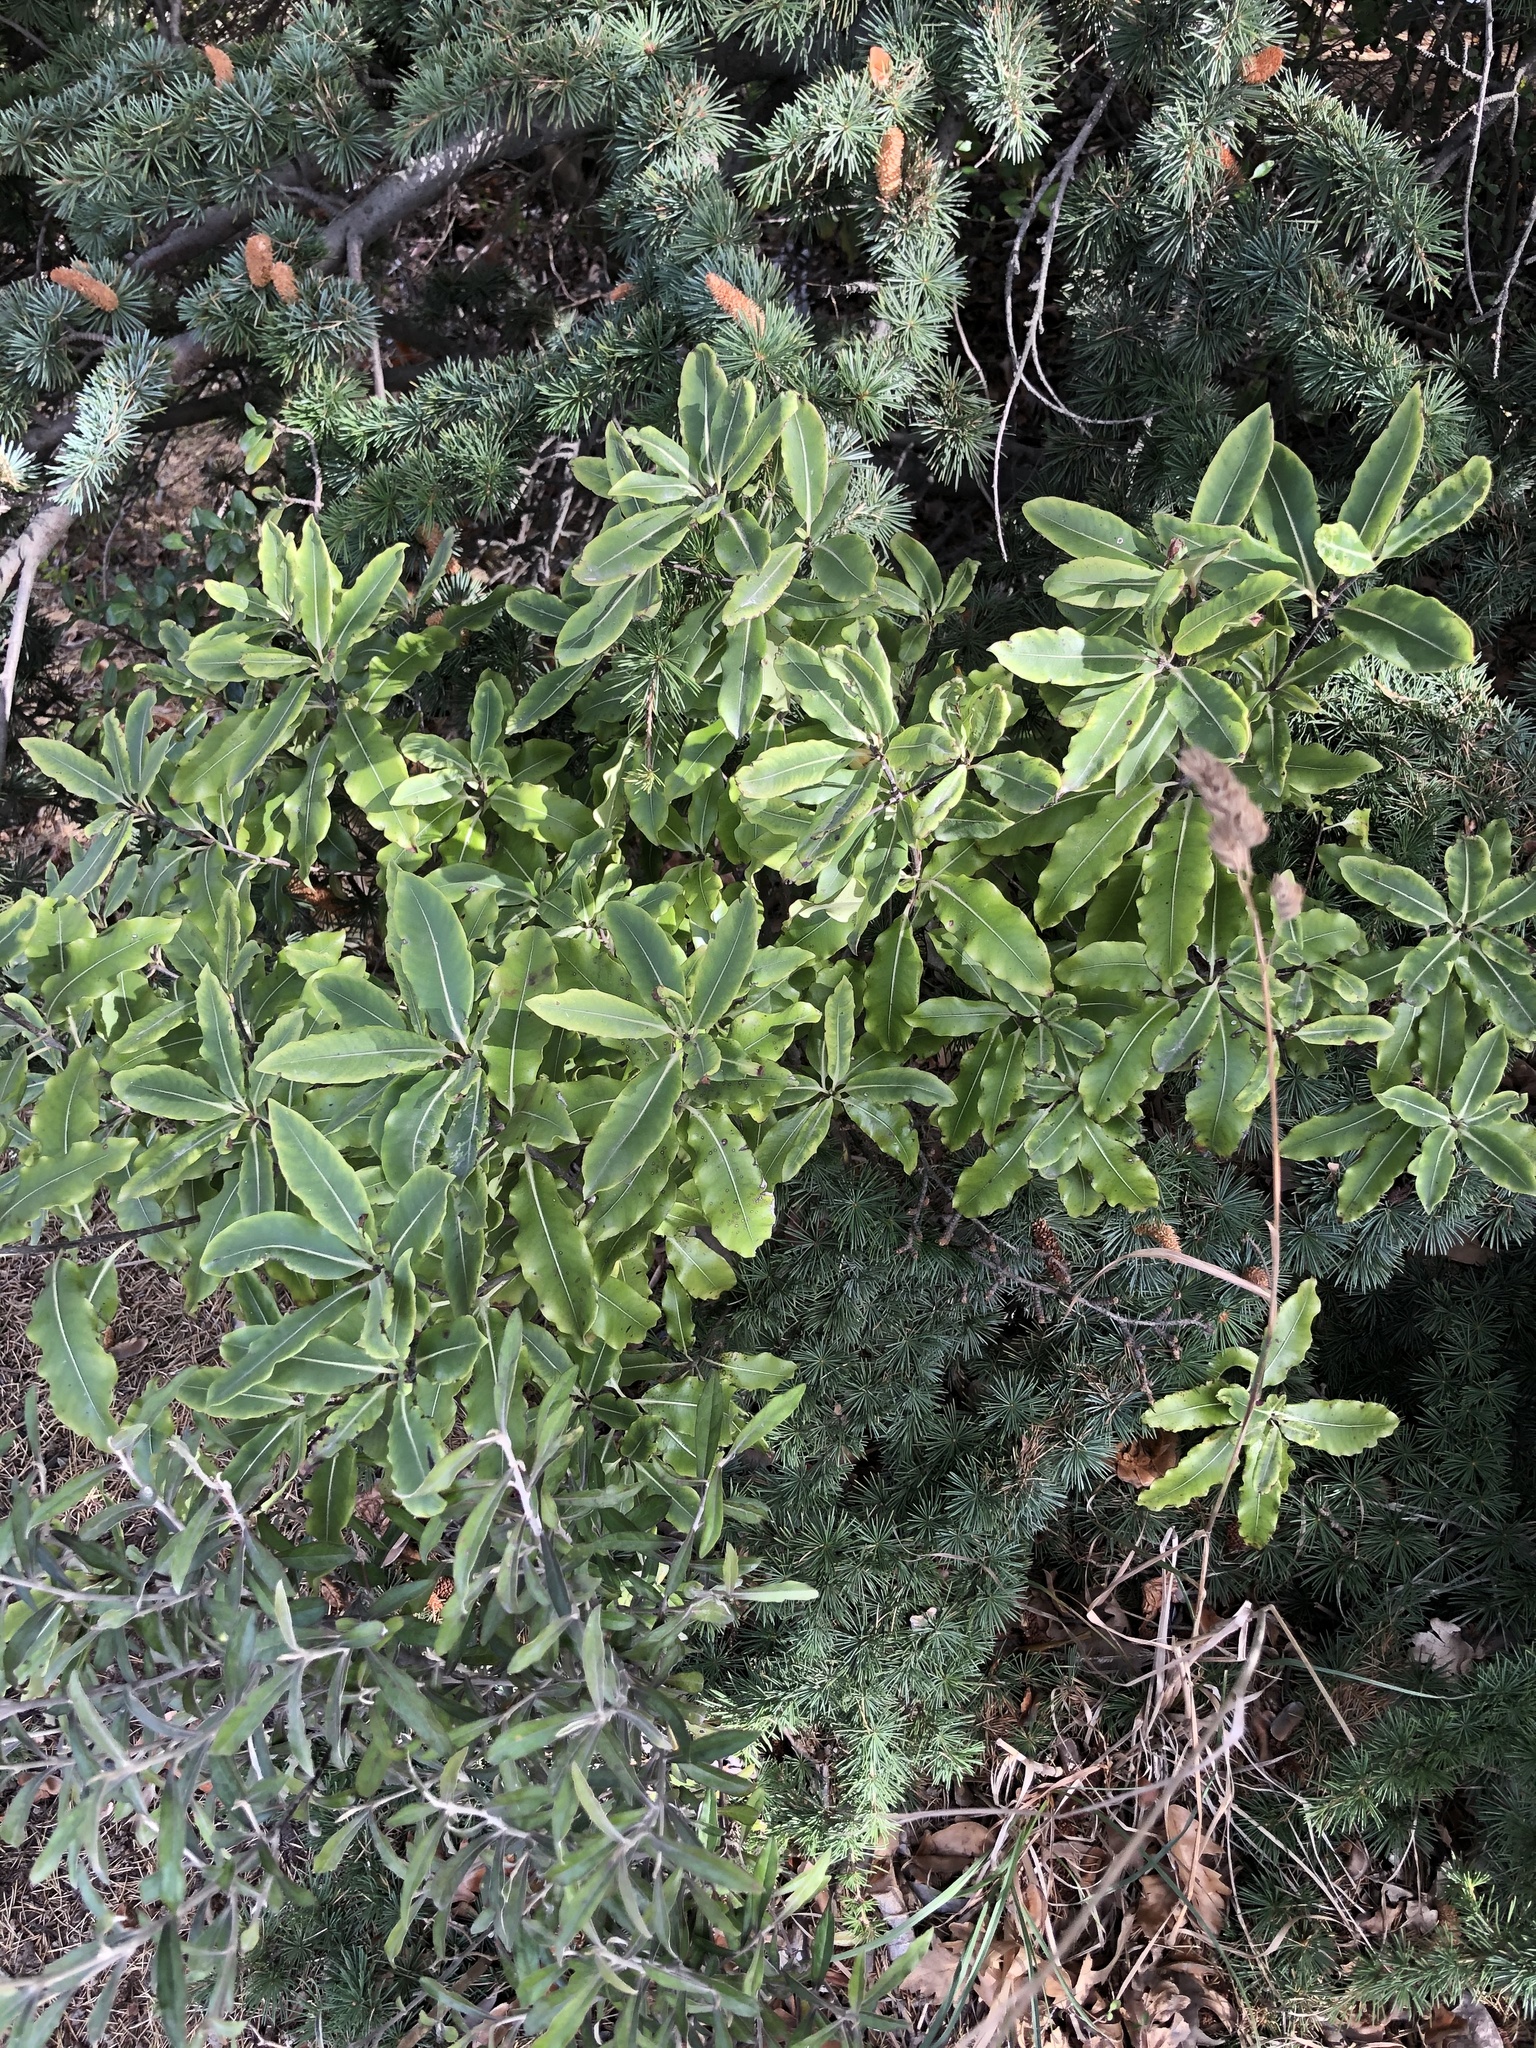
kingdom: Plantae
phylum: Tracheophyta
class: Magnoliopsida
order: Apiales
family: Pittosporaceae
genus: Pittosporum
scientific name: Pittosporum eugenioides
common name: Lemonwood
